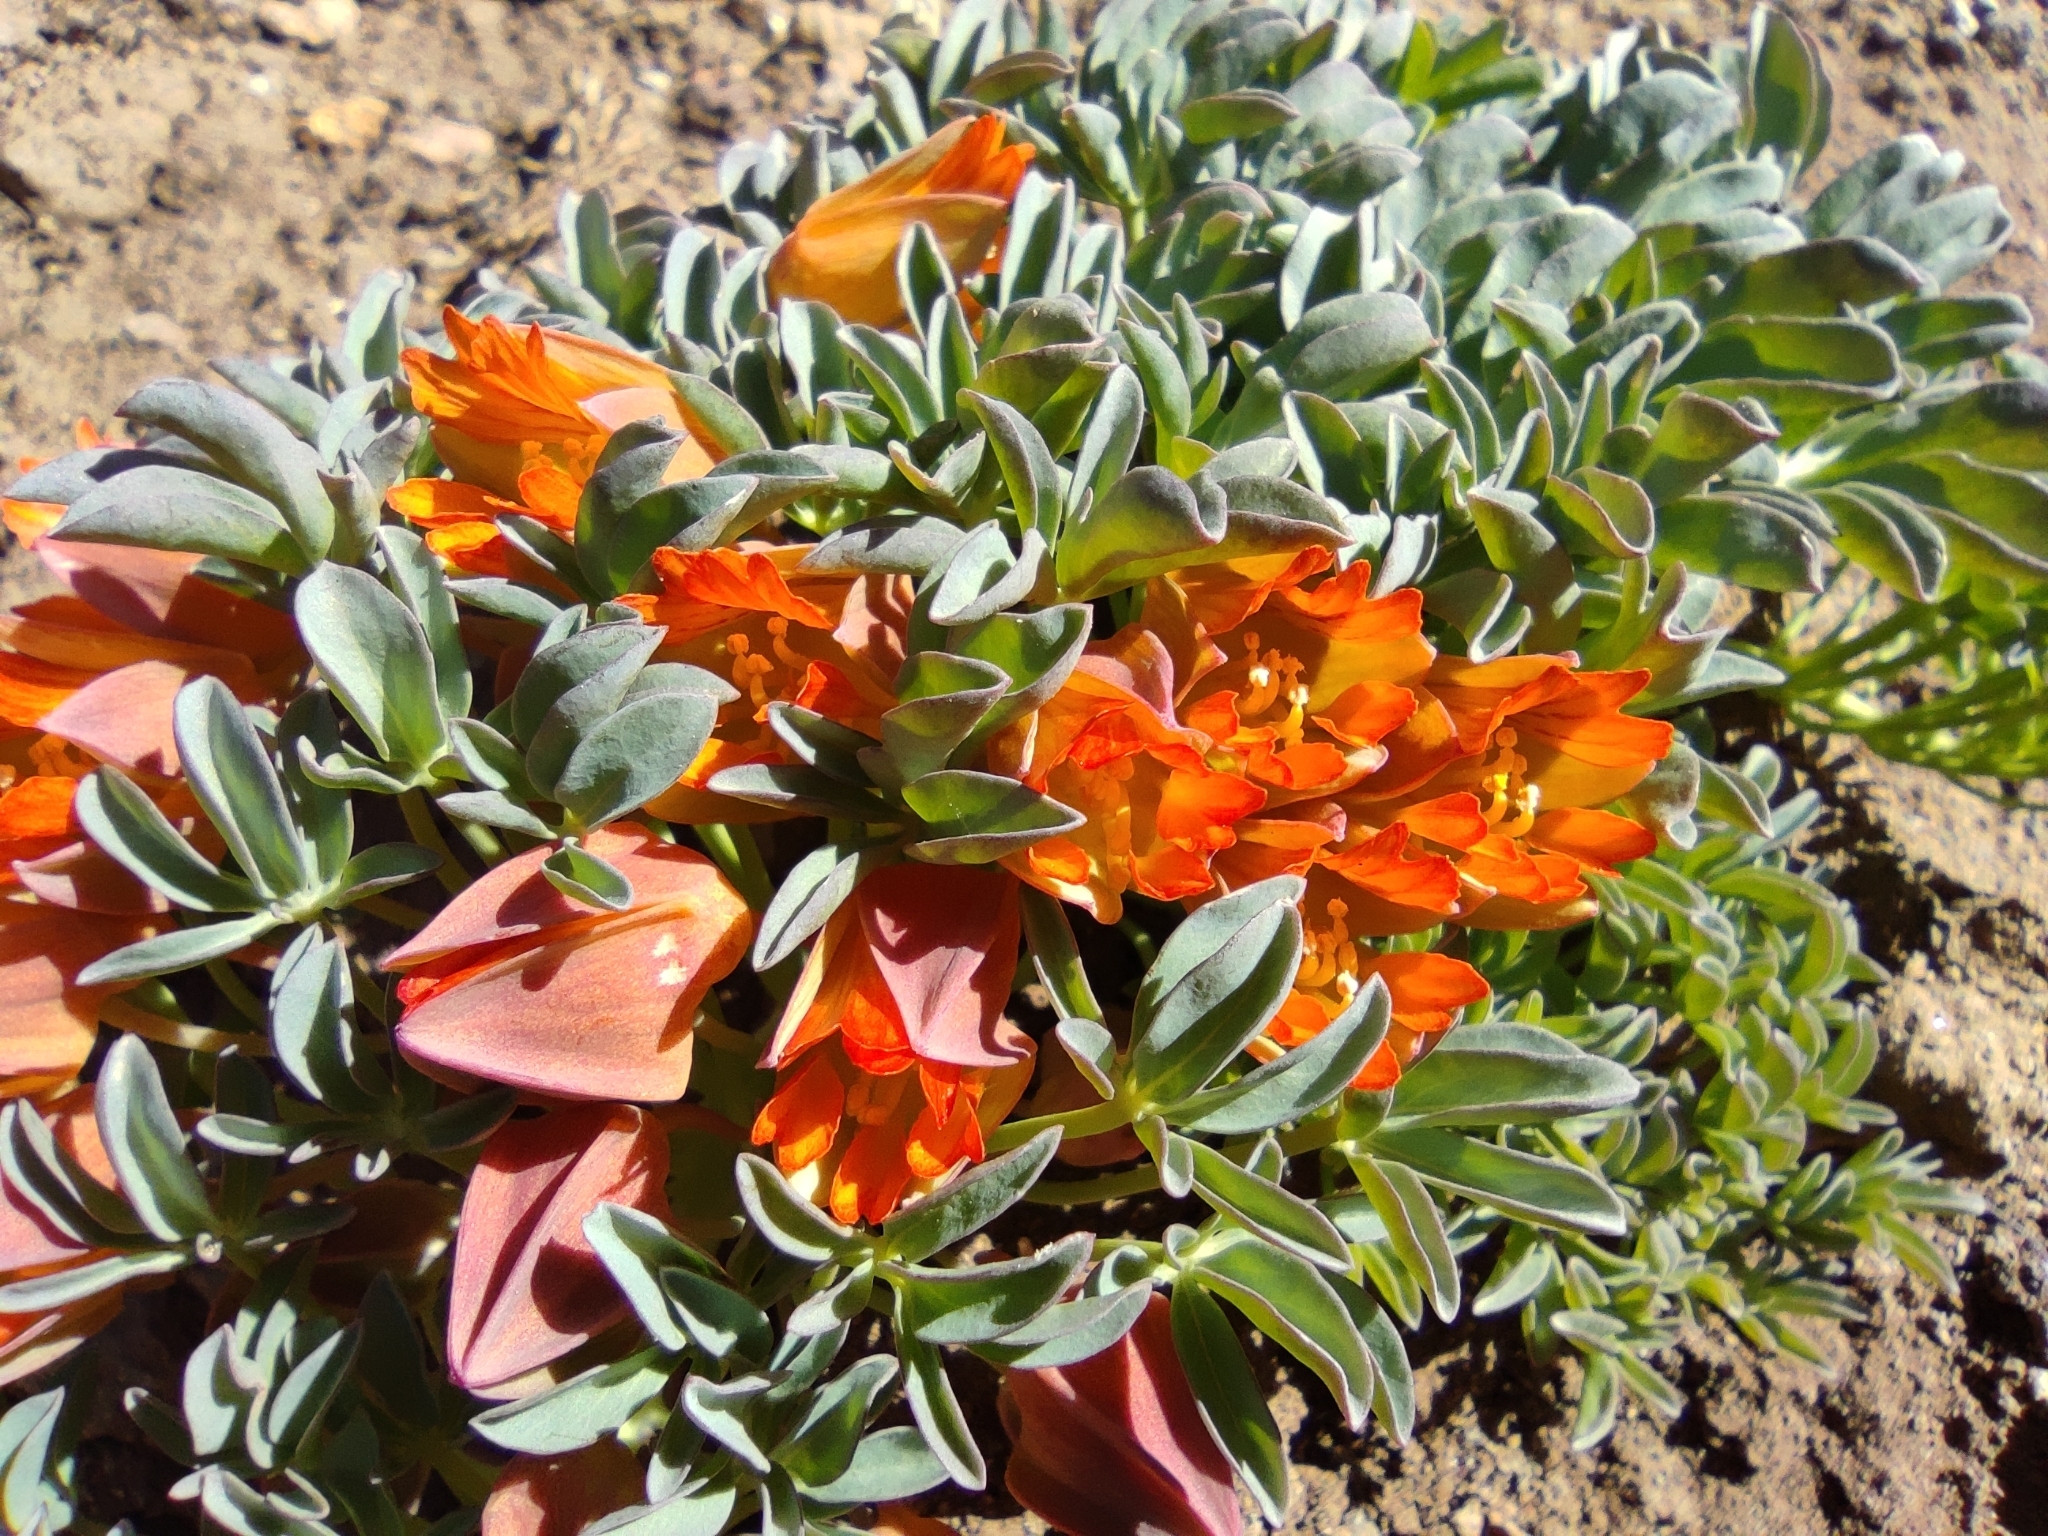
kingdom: Plantae
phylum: Tracheophyta
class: Magnoliopsida
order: Brassicales
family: Tropaeolaceae
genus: Tropaeolum
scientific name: Tropaeolum polyphyllum
